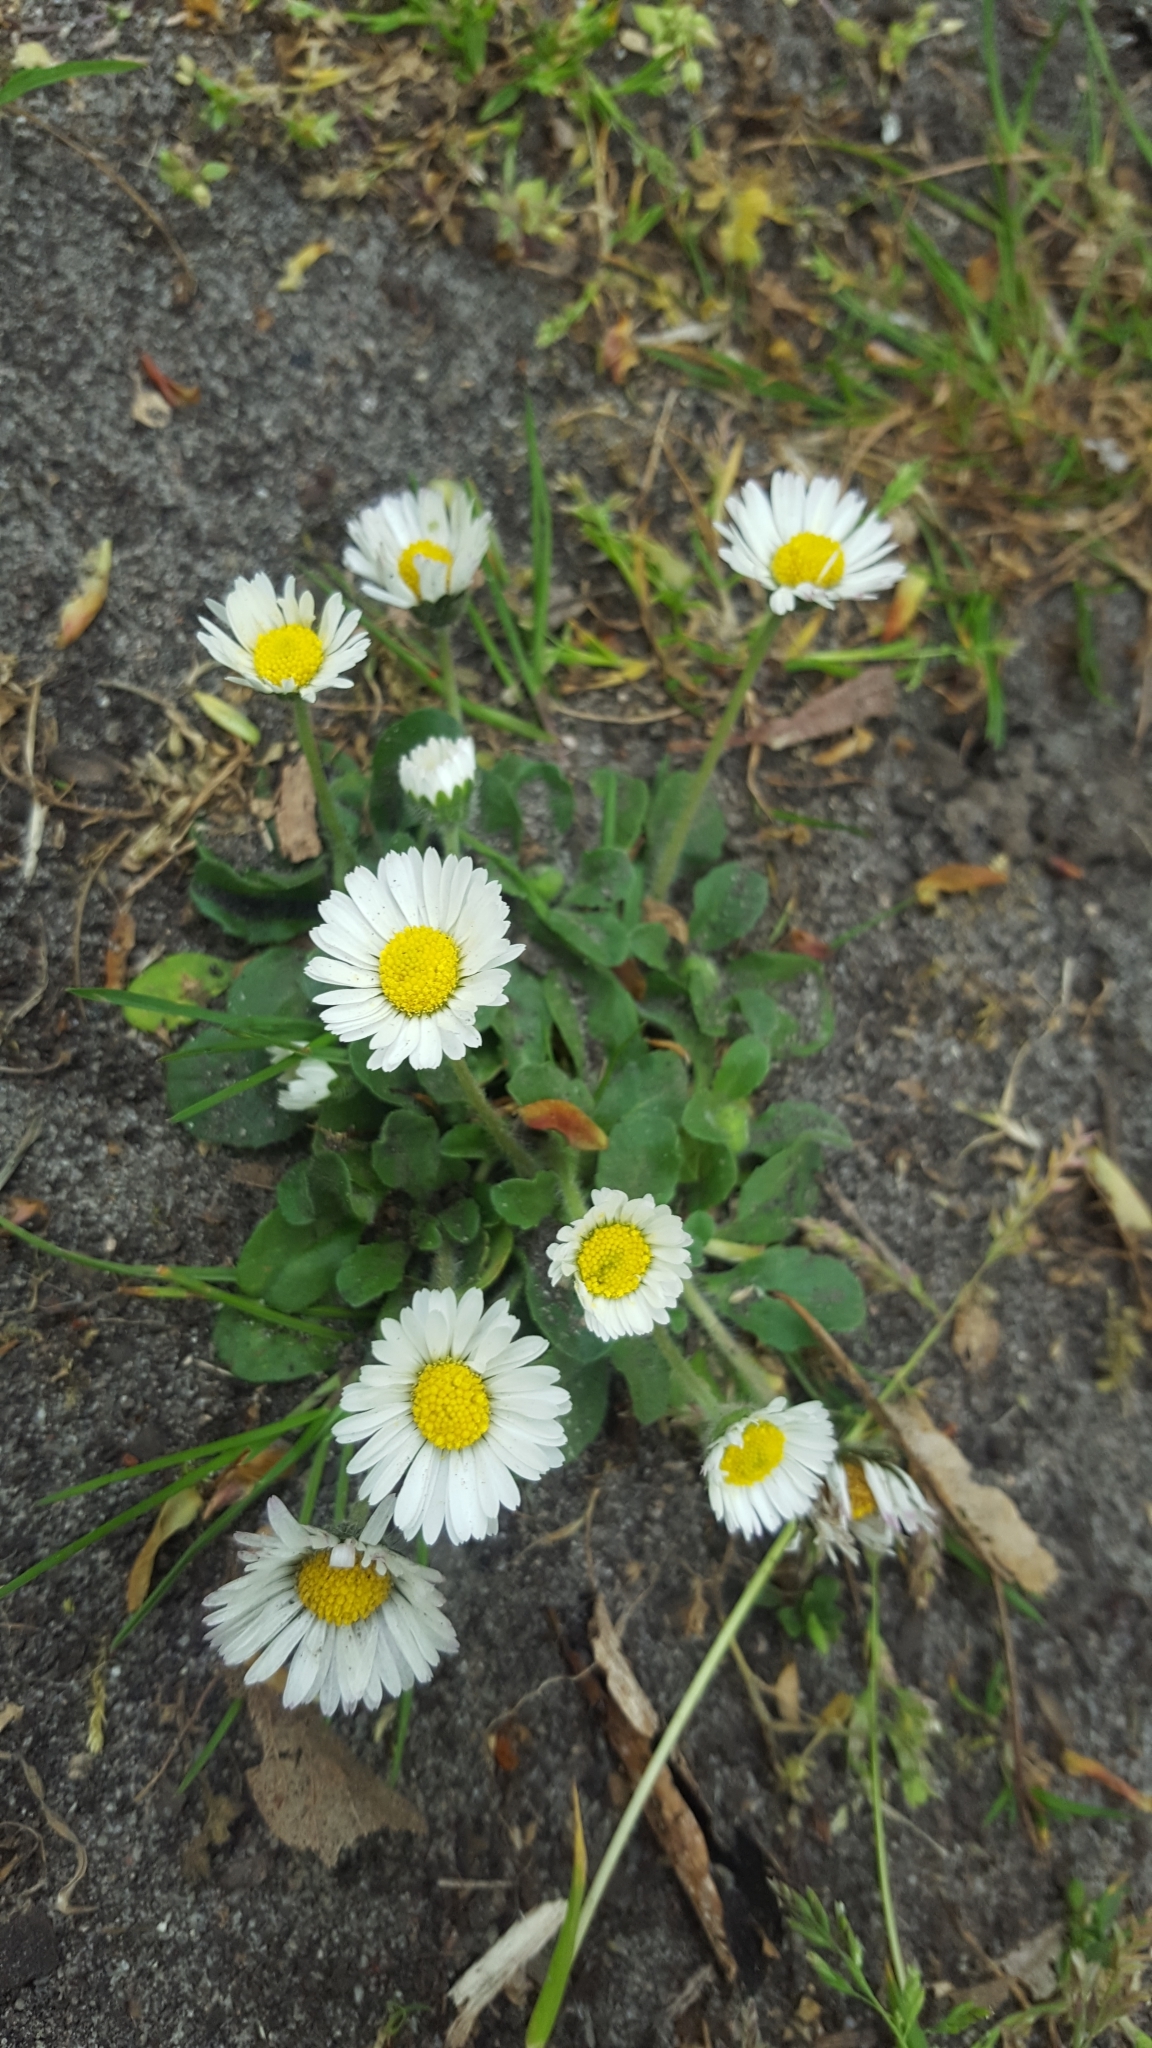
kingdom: Plantae
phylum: Tracheophyta
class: Magnoliopsida
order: Asterales
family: Asteraceae
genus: Bellis
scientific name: Bellis perennis
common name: Lawndaisy
